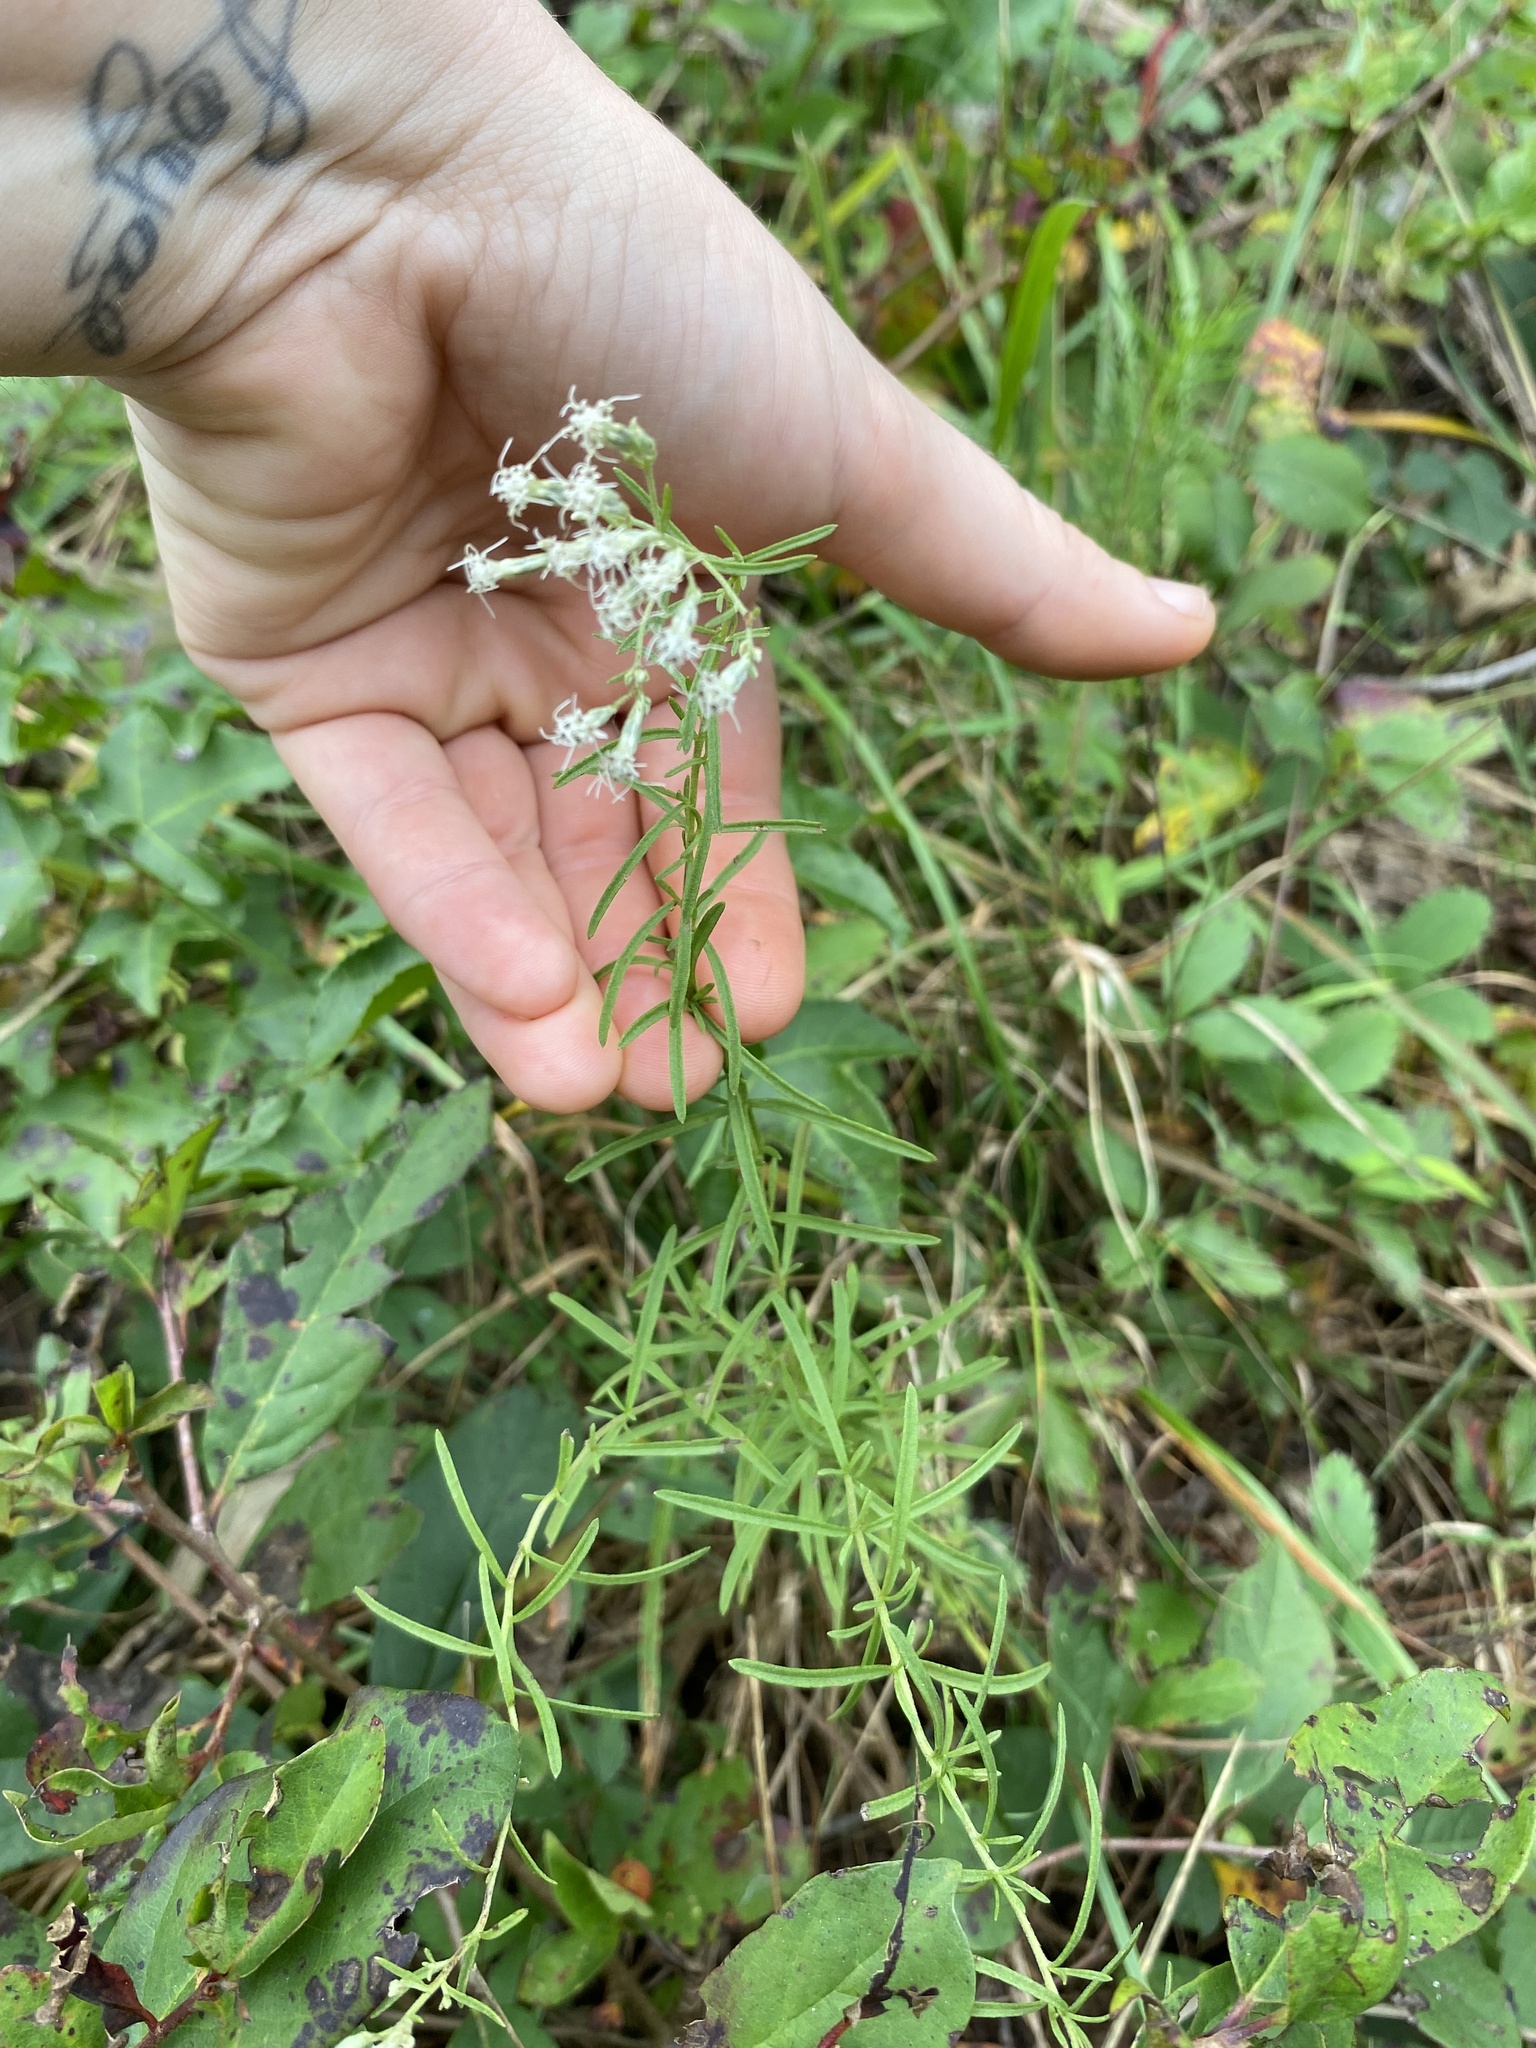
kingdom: Plantae
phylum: Tracheophyta
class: Magnoliopsida
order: Asterales
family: Asteraceae
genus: Eupatorium
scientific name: Eupatorium hyssopifolium
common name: Hyssop-leaf thoroughwort
